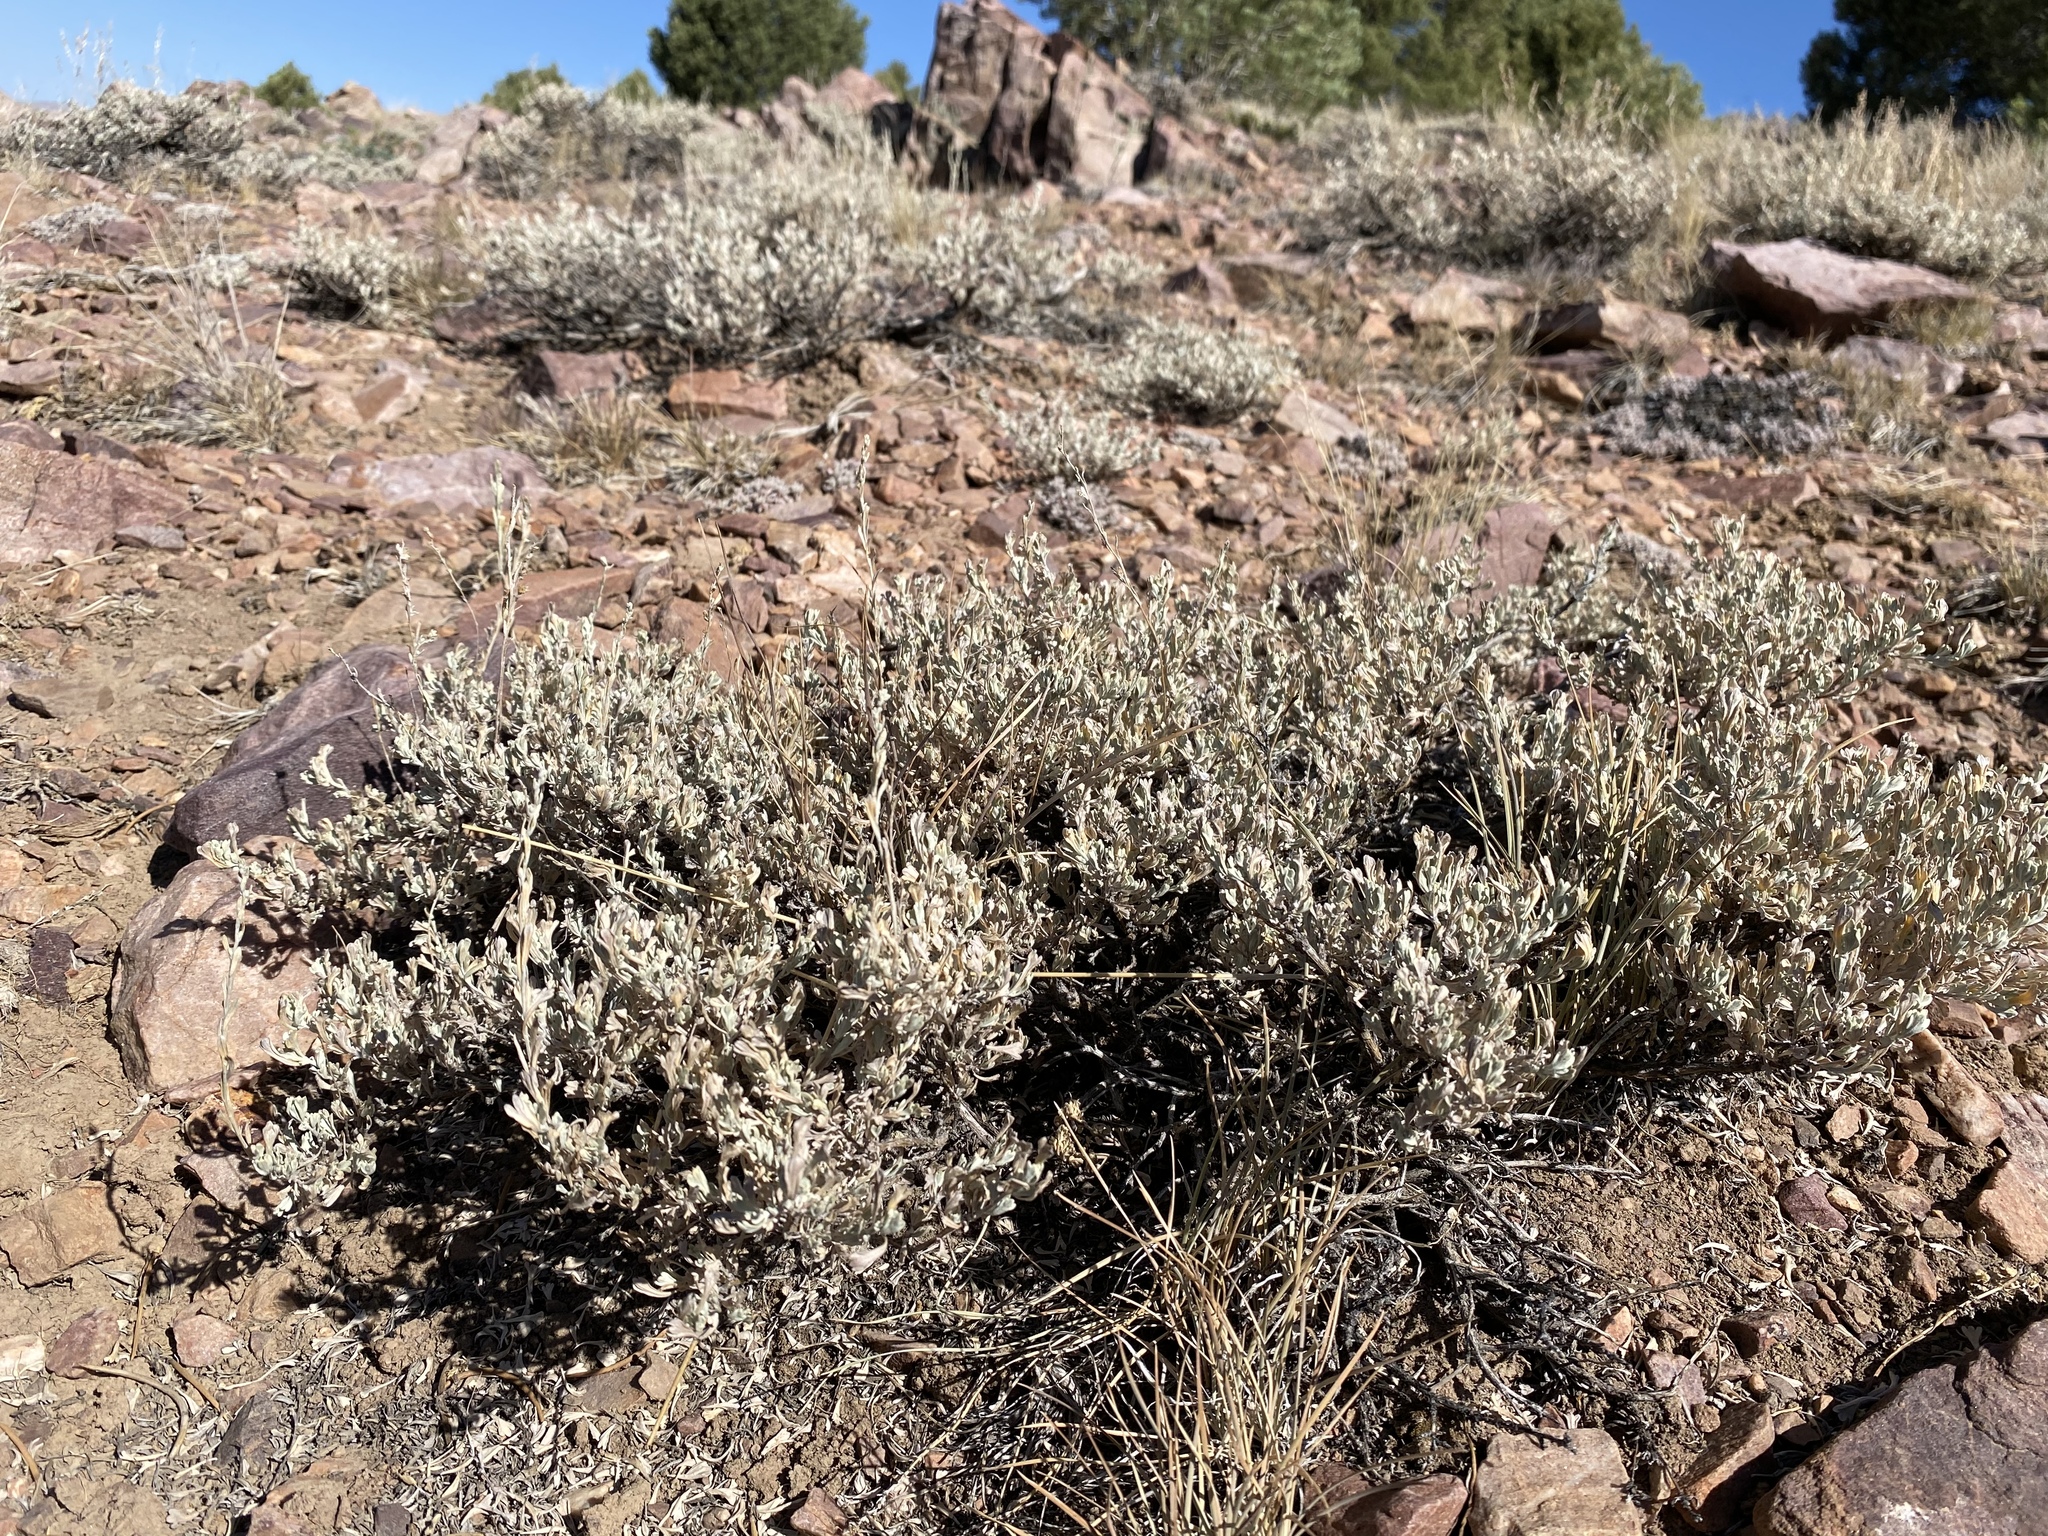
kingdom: Plantae
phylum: Tracheophyta
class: Magnoliopsida
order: Asterales
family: Asteraceae
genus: Artemisia
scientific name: Artemisia arbuscula
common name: Sagebrush
